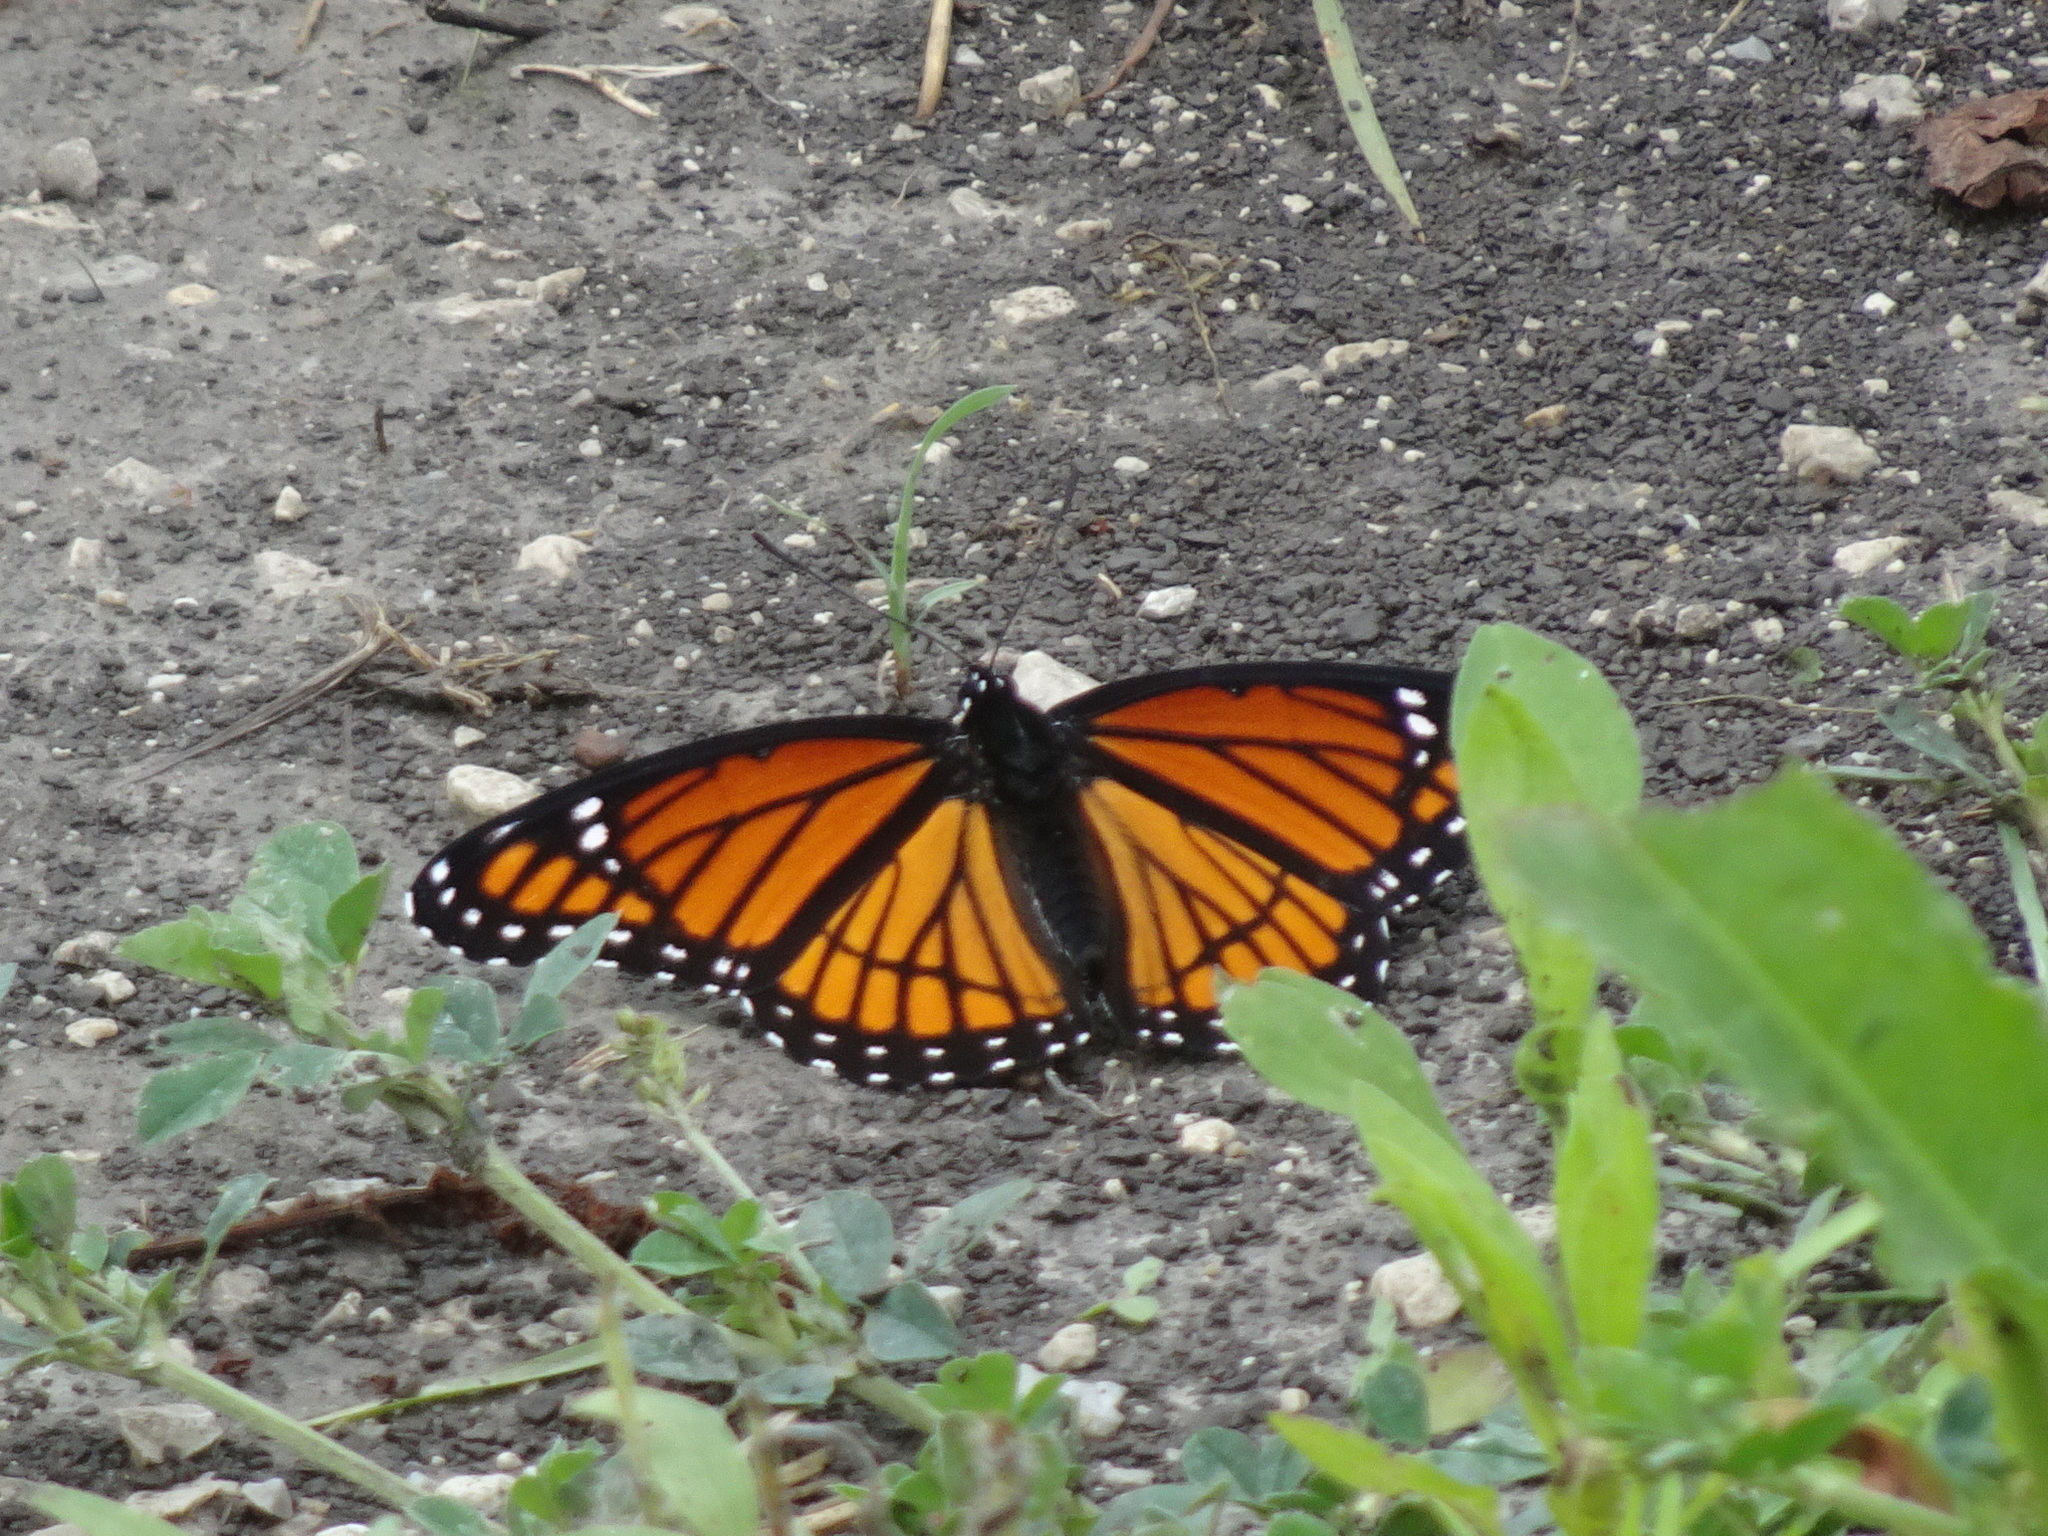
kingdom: Animalia
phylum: Arthropoda
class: Insecta
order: Lepidoptera
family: Nymphalidae
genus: Limenitis
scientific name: Limenitis archippus
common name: Viceroy
